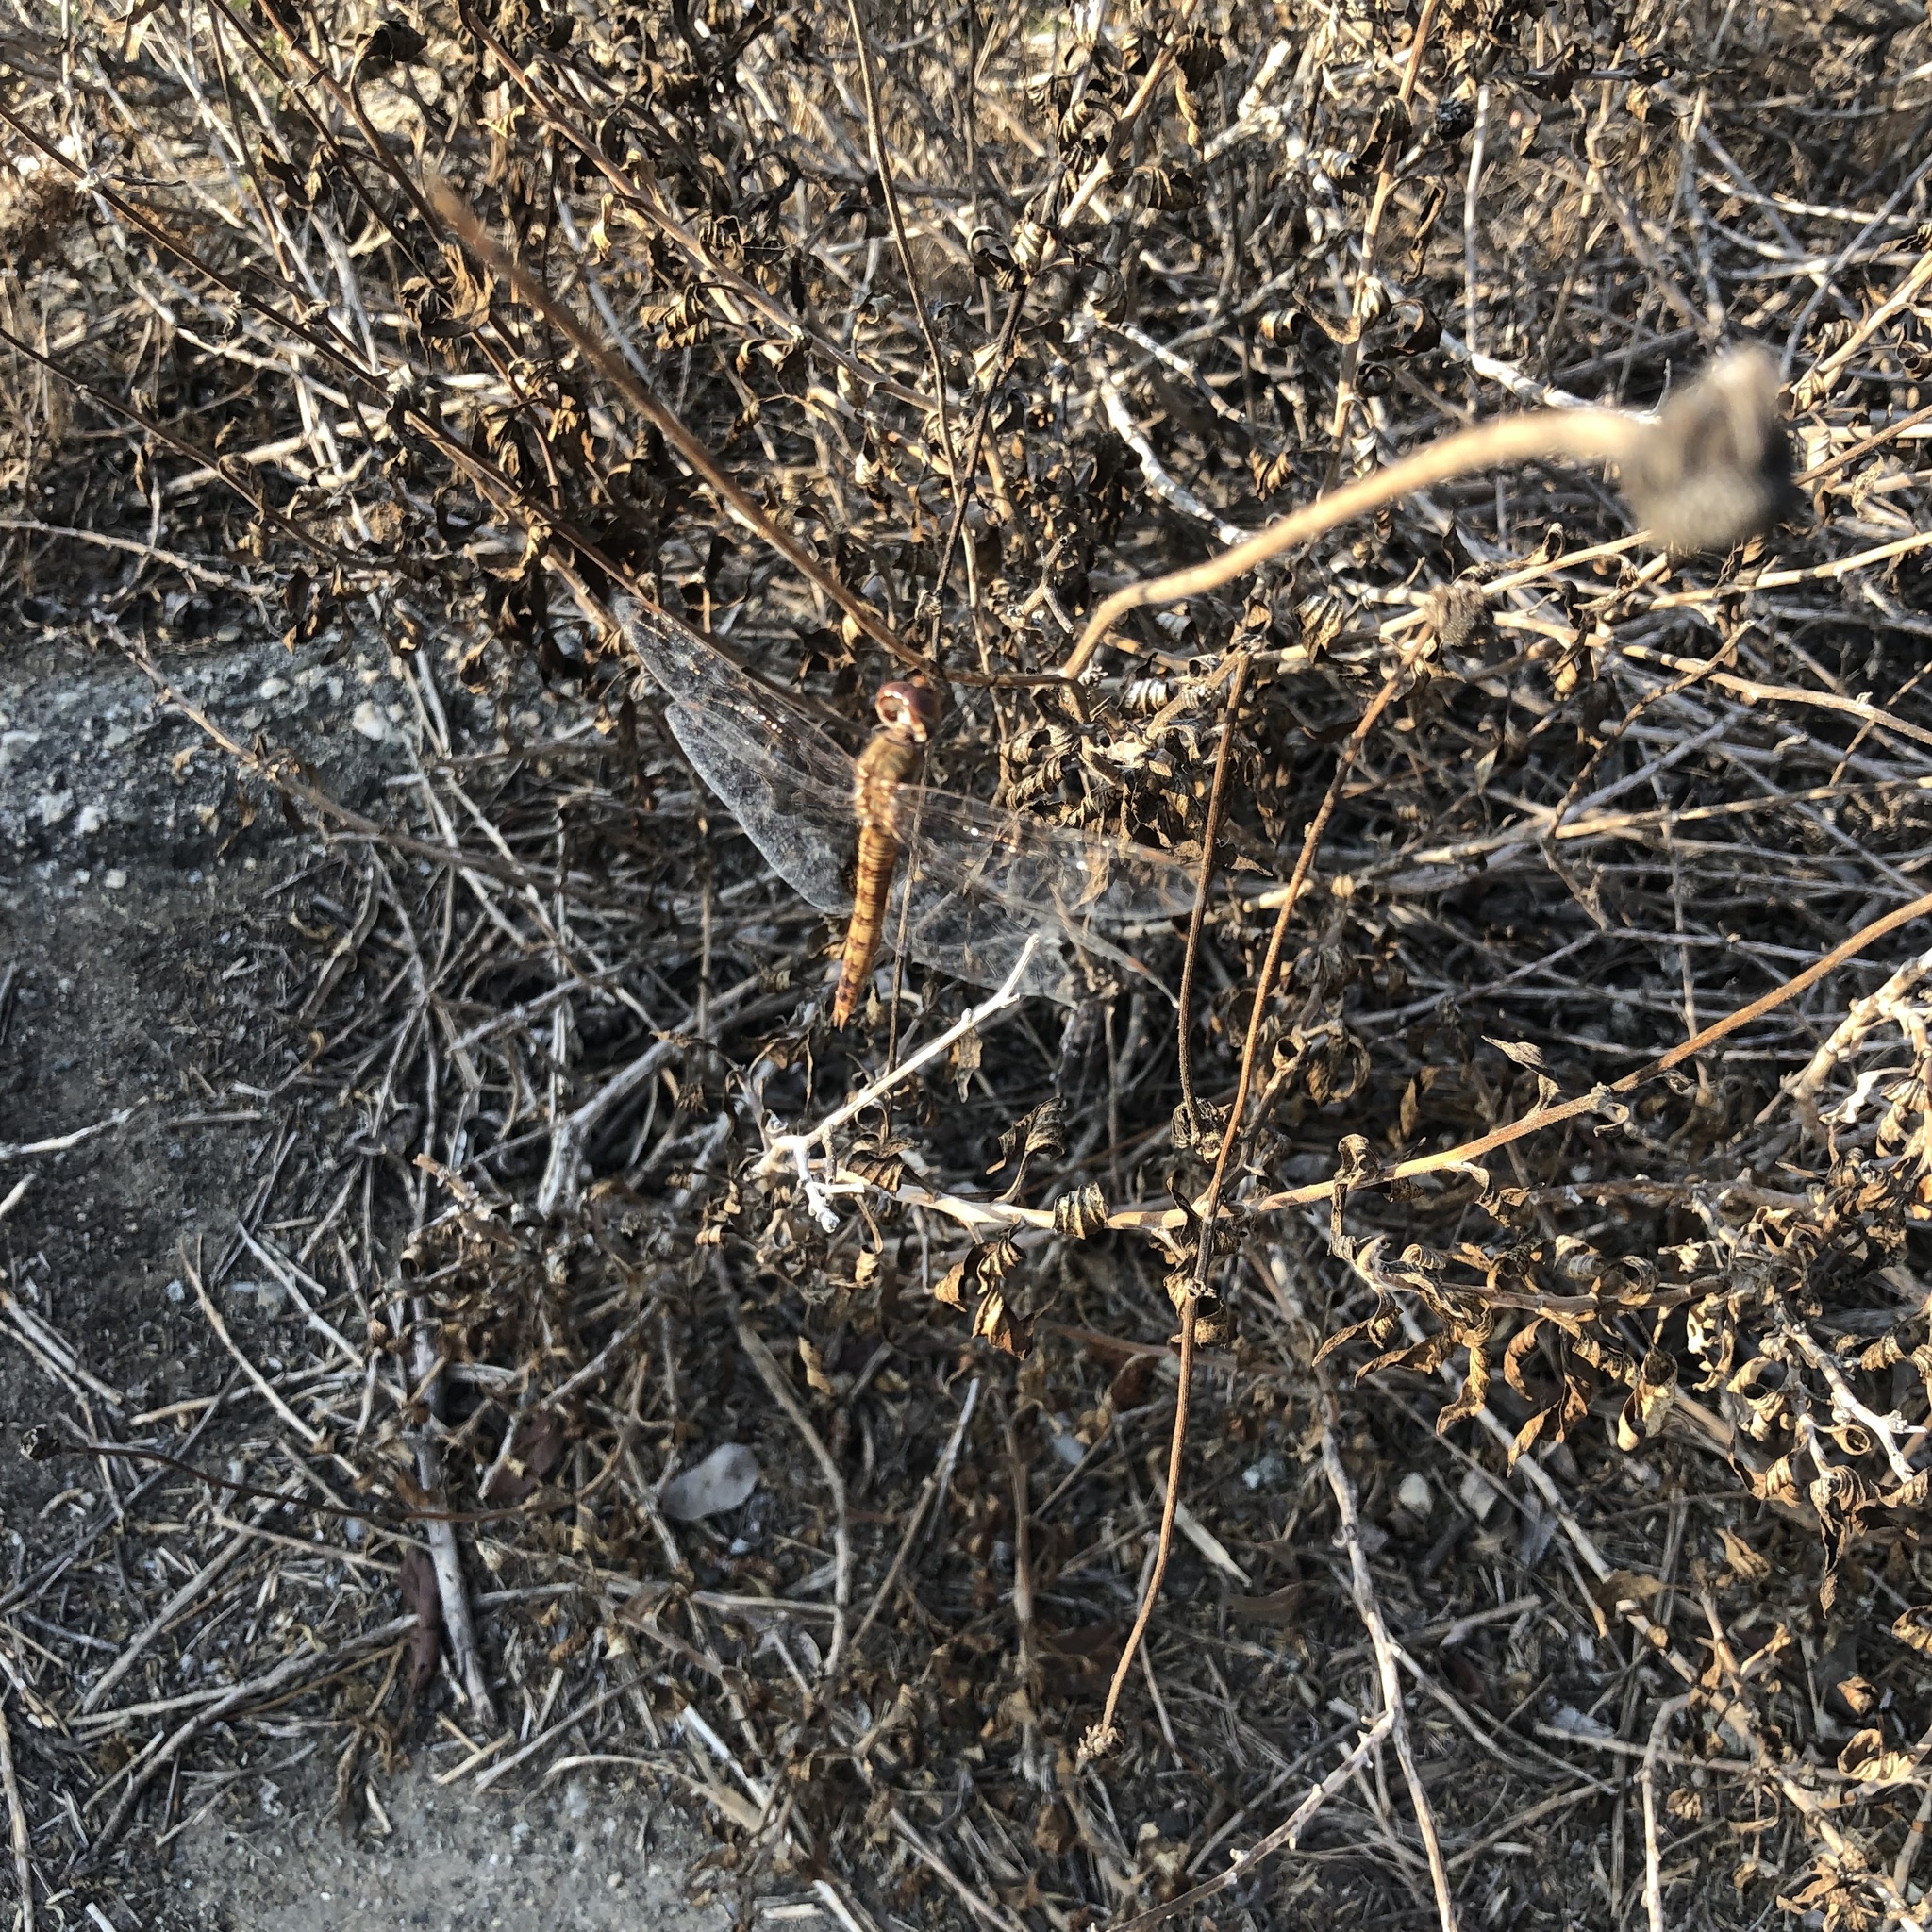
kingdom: Animalia
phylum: Arthropoda
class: Insecta
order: Odonata
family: Libellulidae
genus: Pantala
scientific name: Pantala hymenaea
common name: Spot-winged glider
